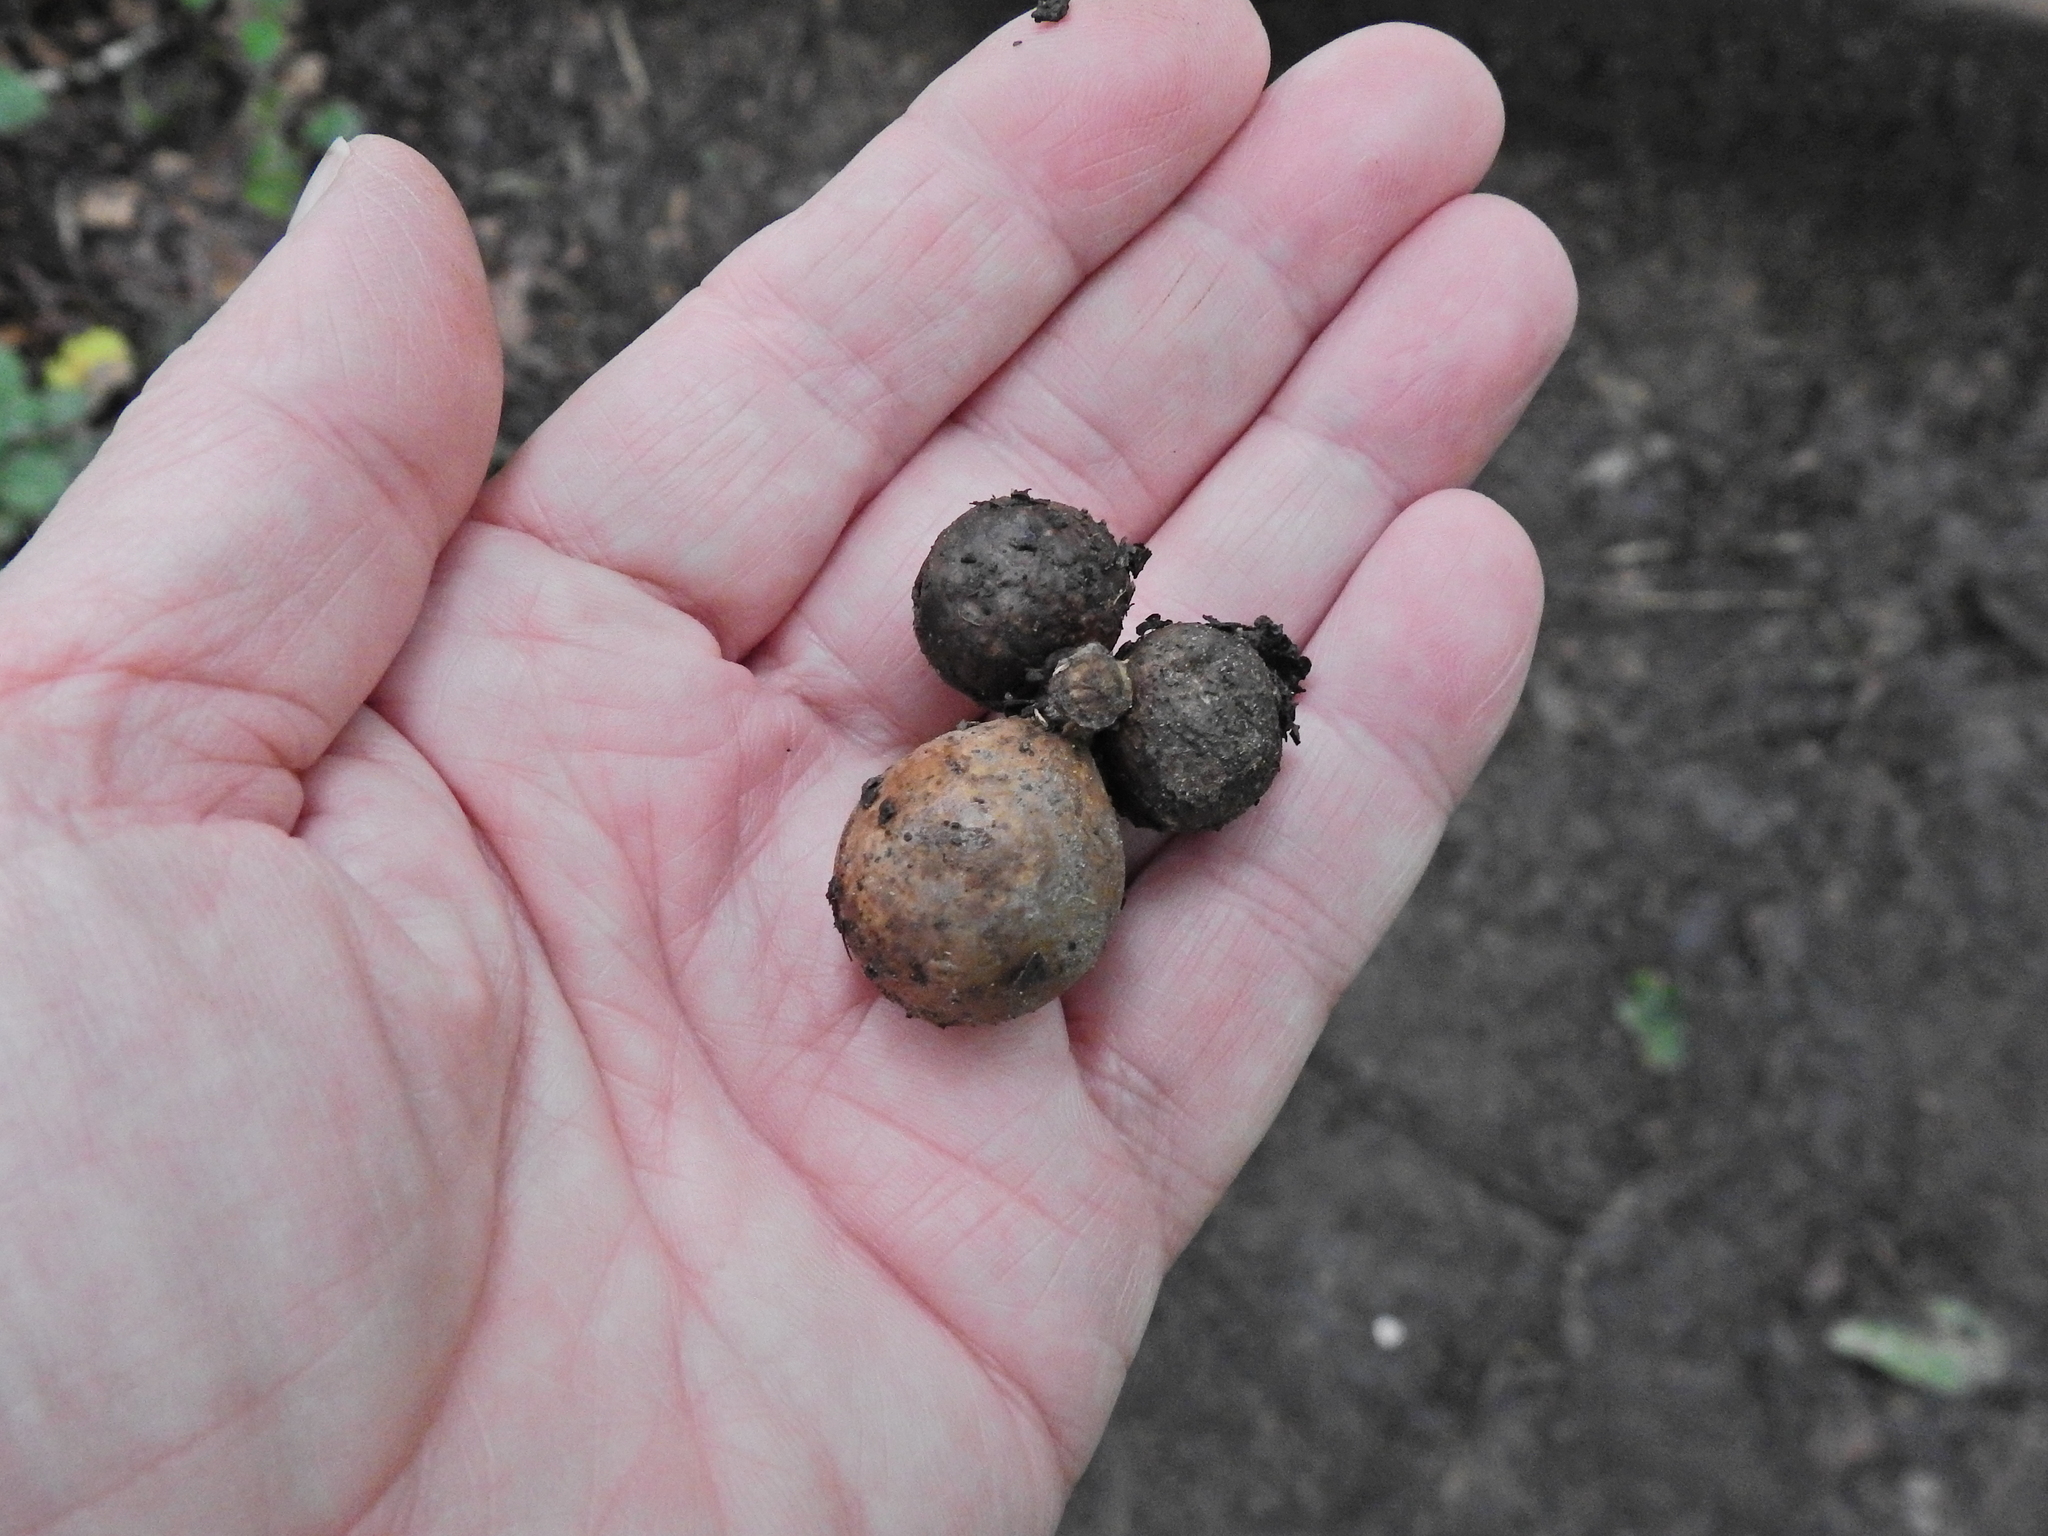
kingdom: Animalia
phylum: Arthropoda
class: Insecta
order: Hymenoptera
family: Cynipidae
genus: Andricus
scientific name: Andricus kollari
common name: Marble gall
